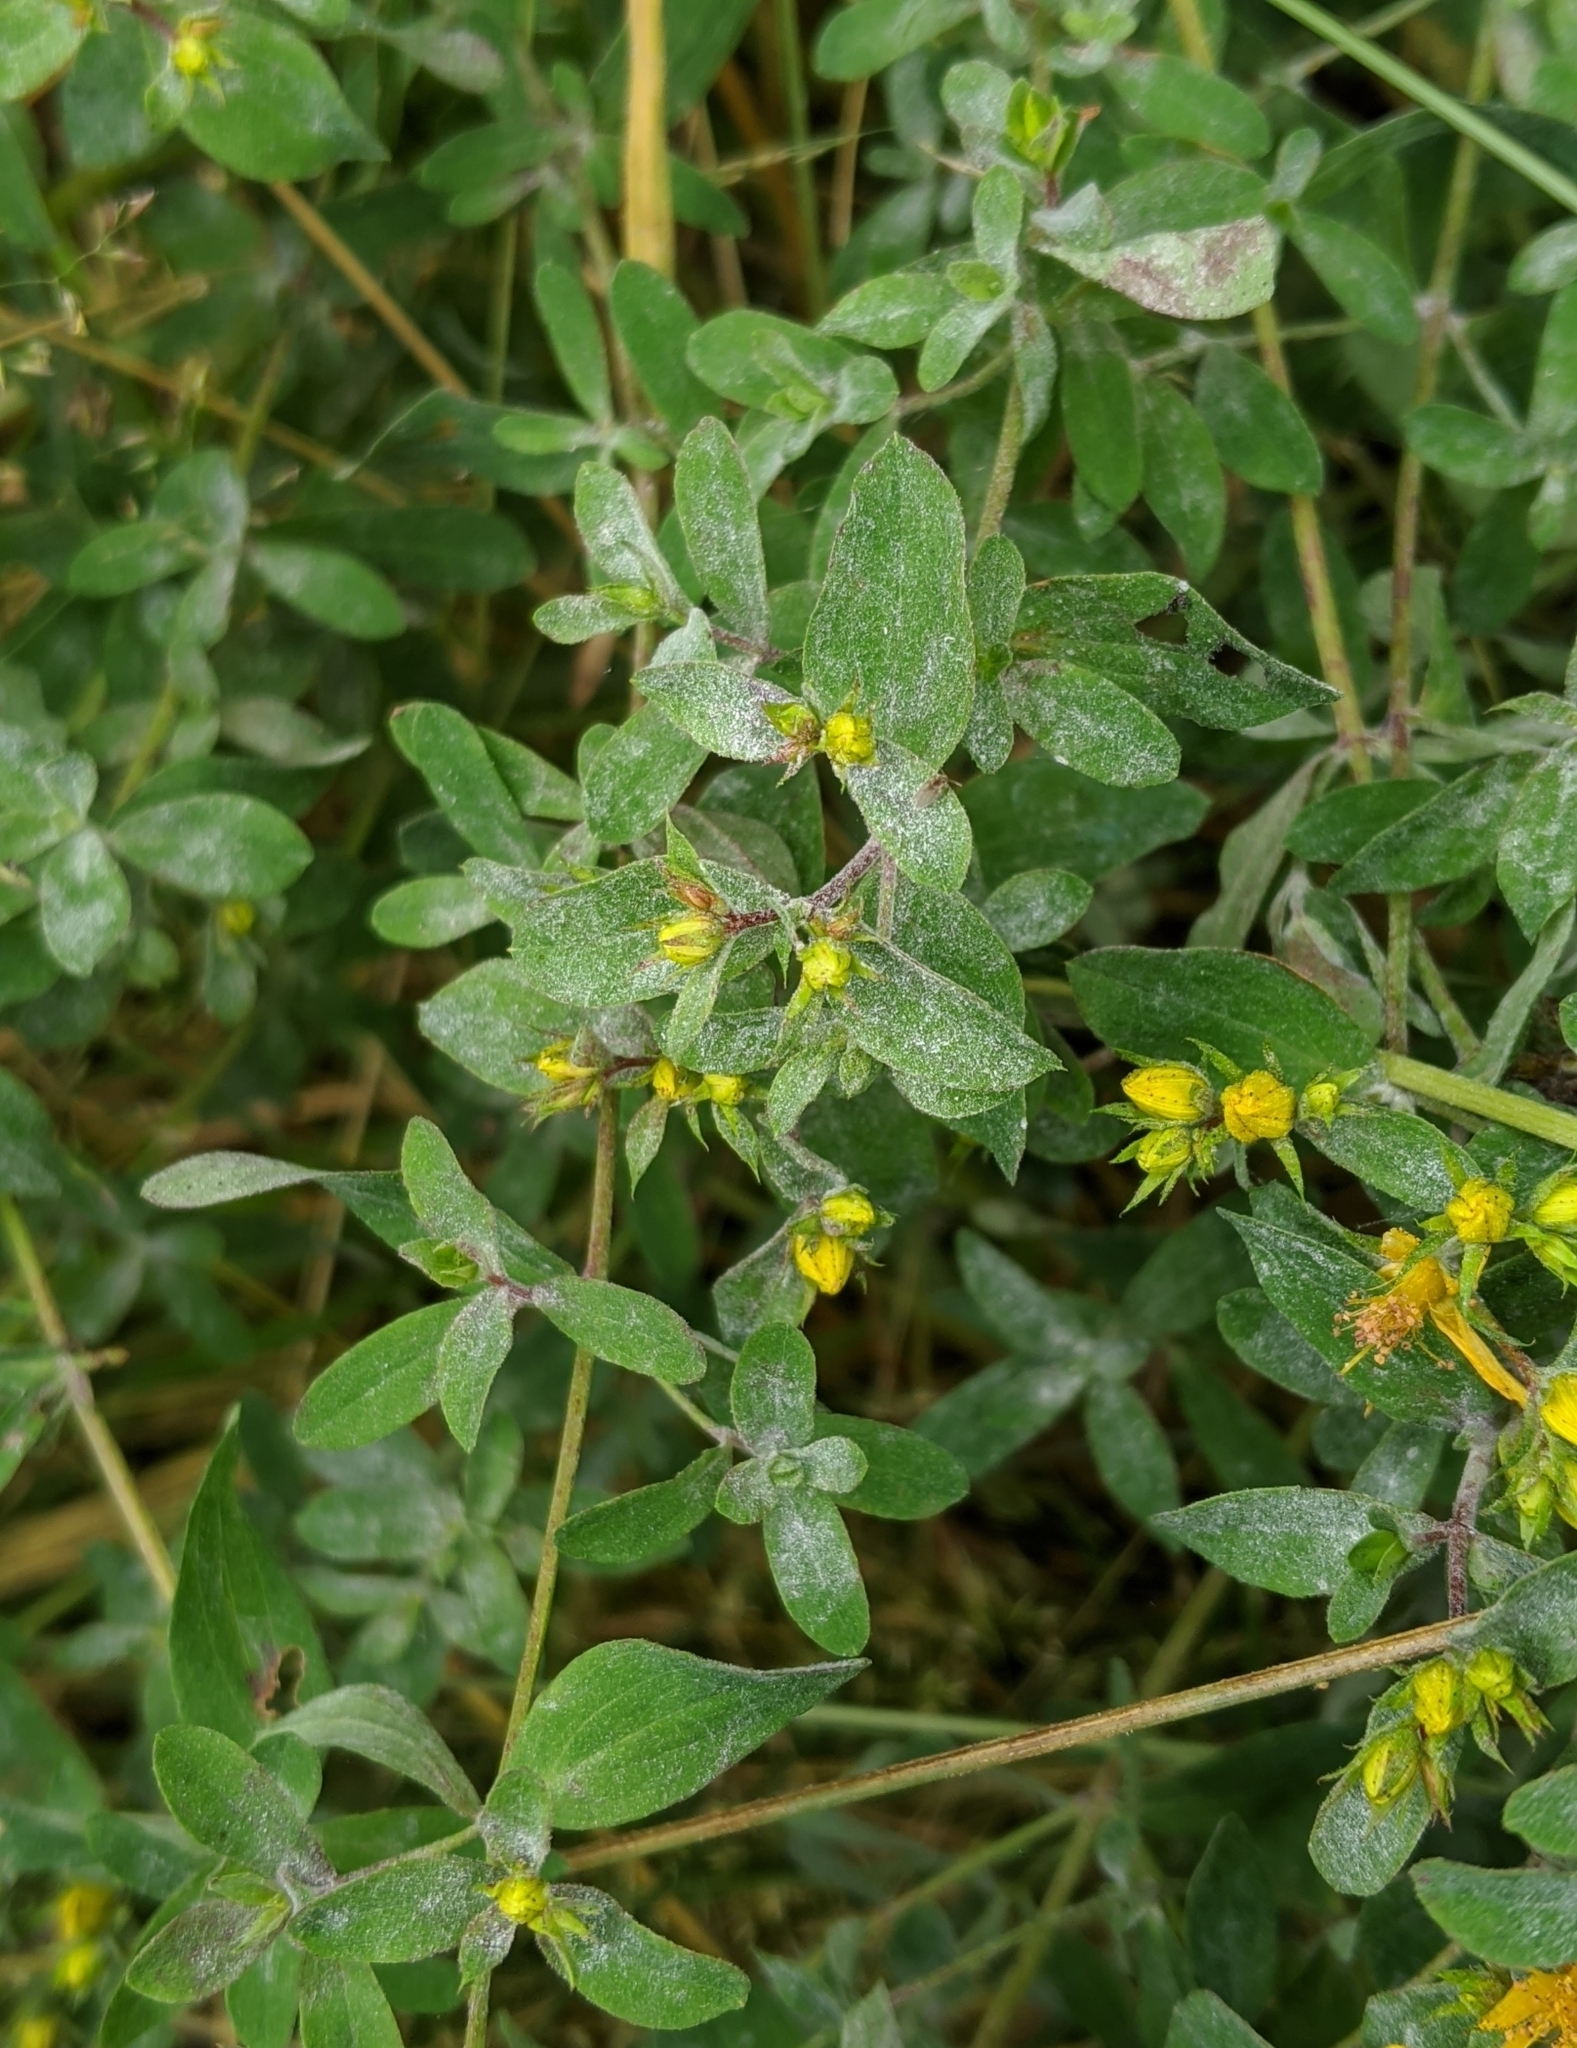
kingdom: Plantae
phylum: Tracheophyta
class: Magnoliopsida
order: Malpighiales
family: Hypericaceae
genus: Hypericum
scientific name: Hypericum perforatum
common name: Common st. johnswort
